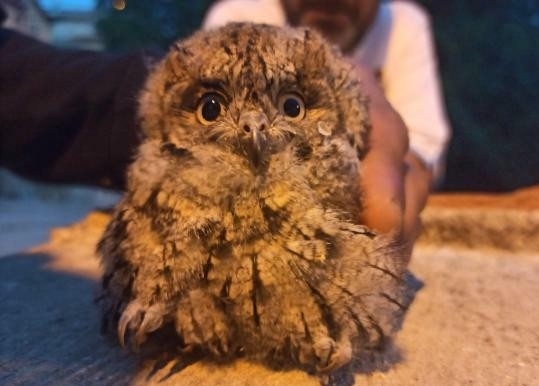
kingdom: Animalia
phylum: Chordata
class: Aves
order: Strigiformes
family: Strigidae
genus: Otus
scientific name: Otus scops
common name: Eurasian scops owl
